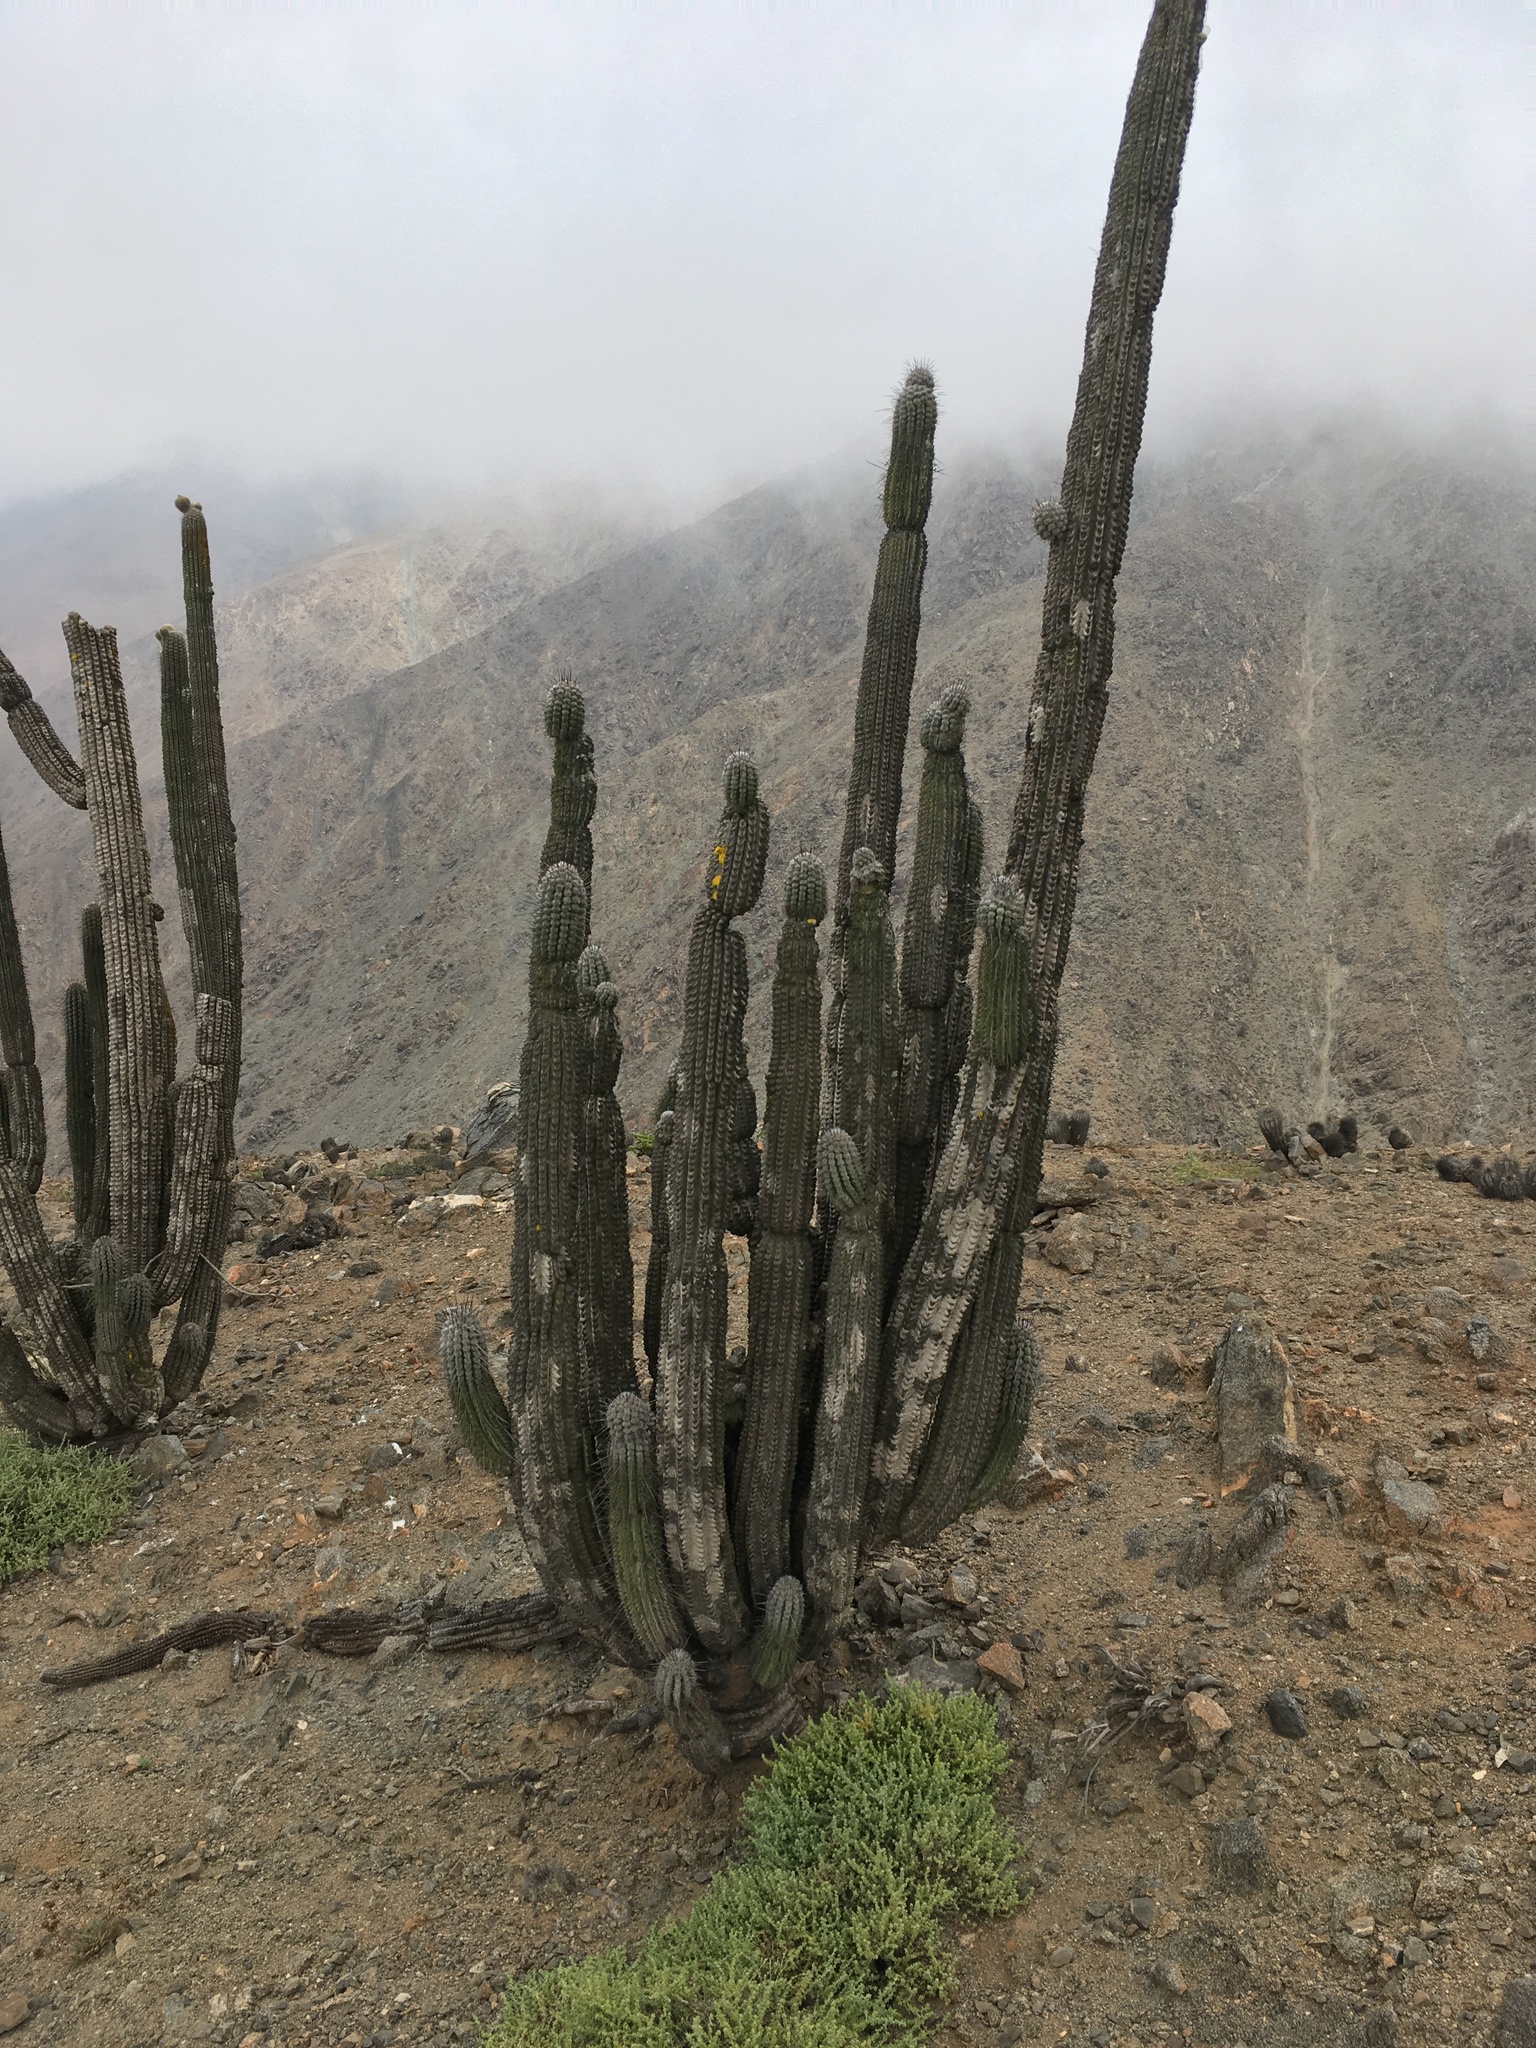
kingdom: Plantae
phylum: Tracheophyta
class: Magnoliopsida
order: Caryophyllales
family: Cactaceae
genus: Eulychnia
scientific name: Eulychnia iquiquensis
